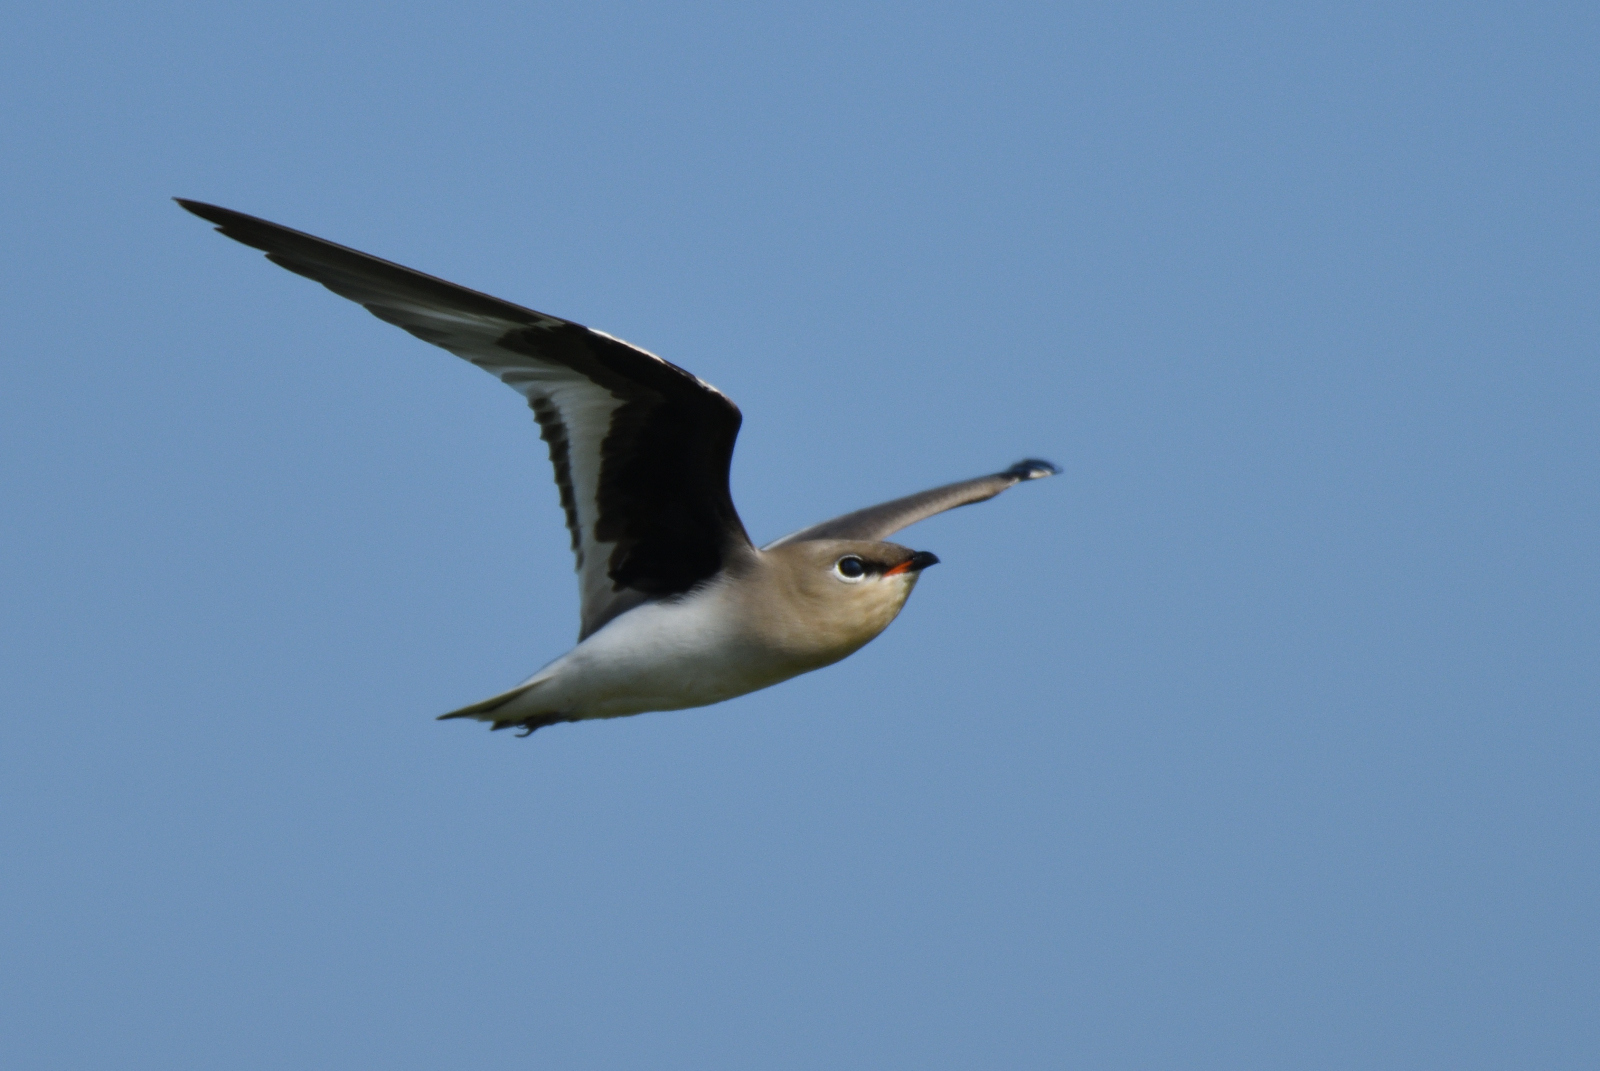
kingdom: Animalia
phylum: Chordata
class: Aves
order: Charadriiformes
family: Glareolidae
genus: Glareola
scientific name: Glareola lactea
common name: Small pratincole
